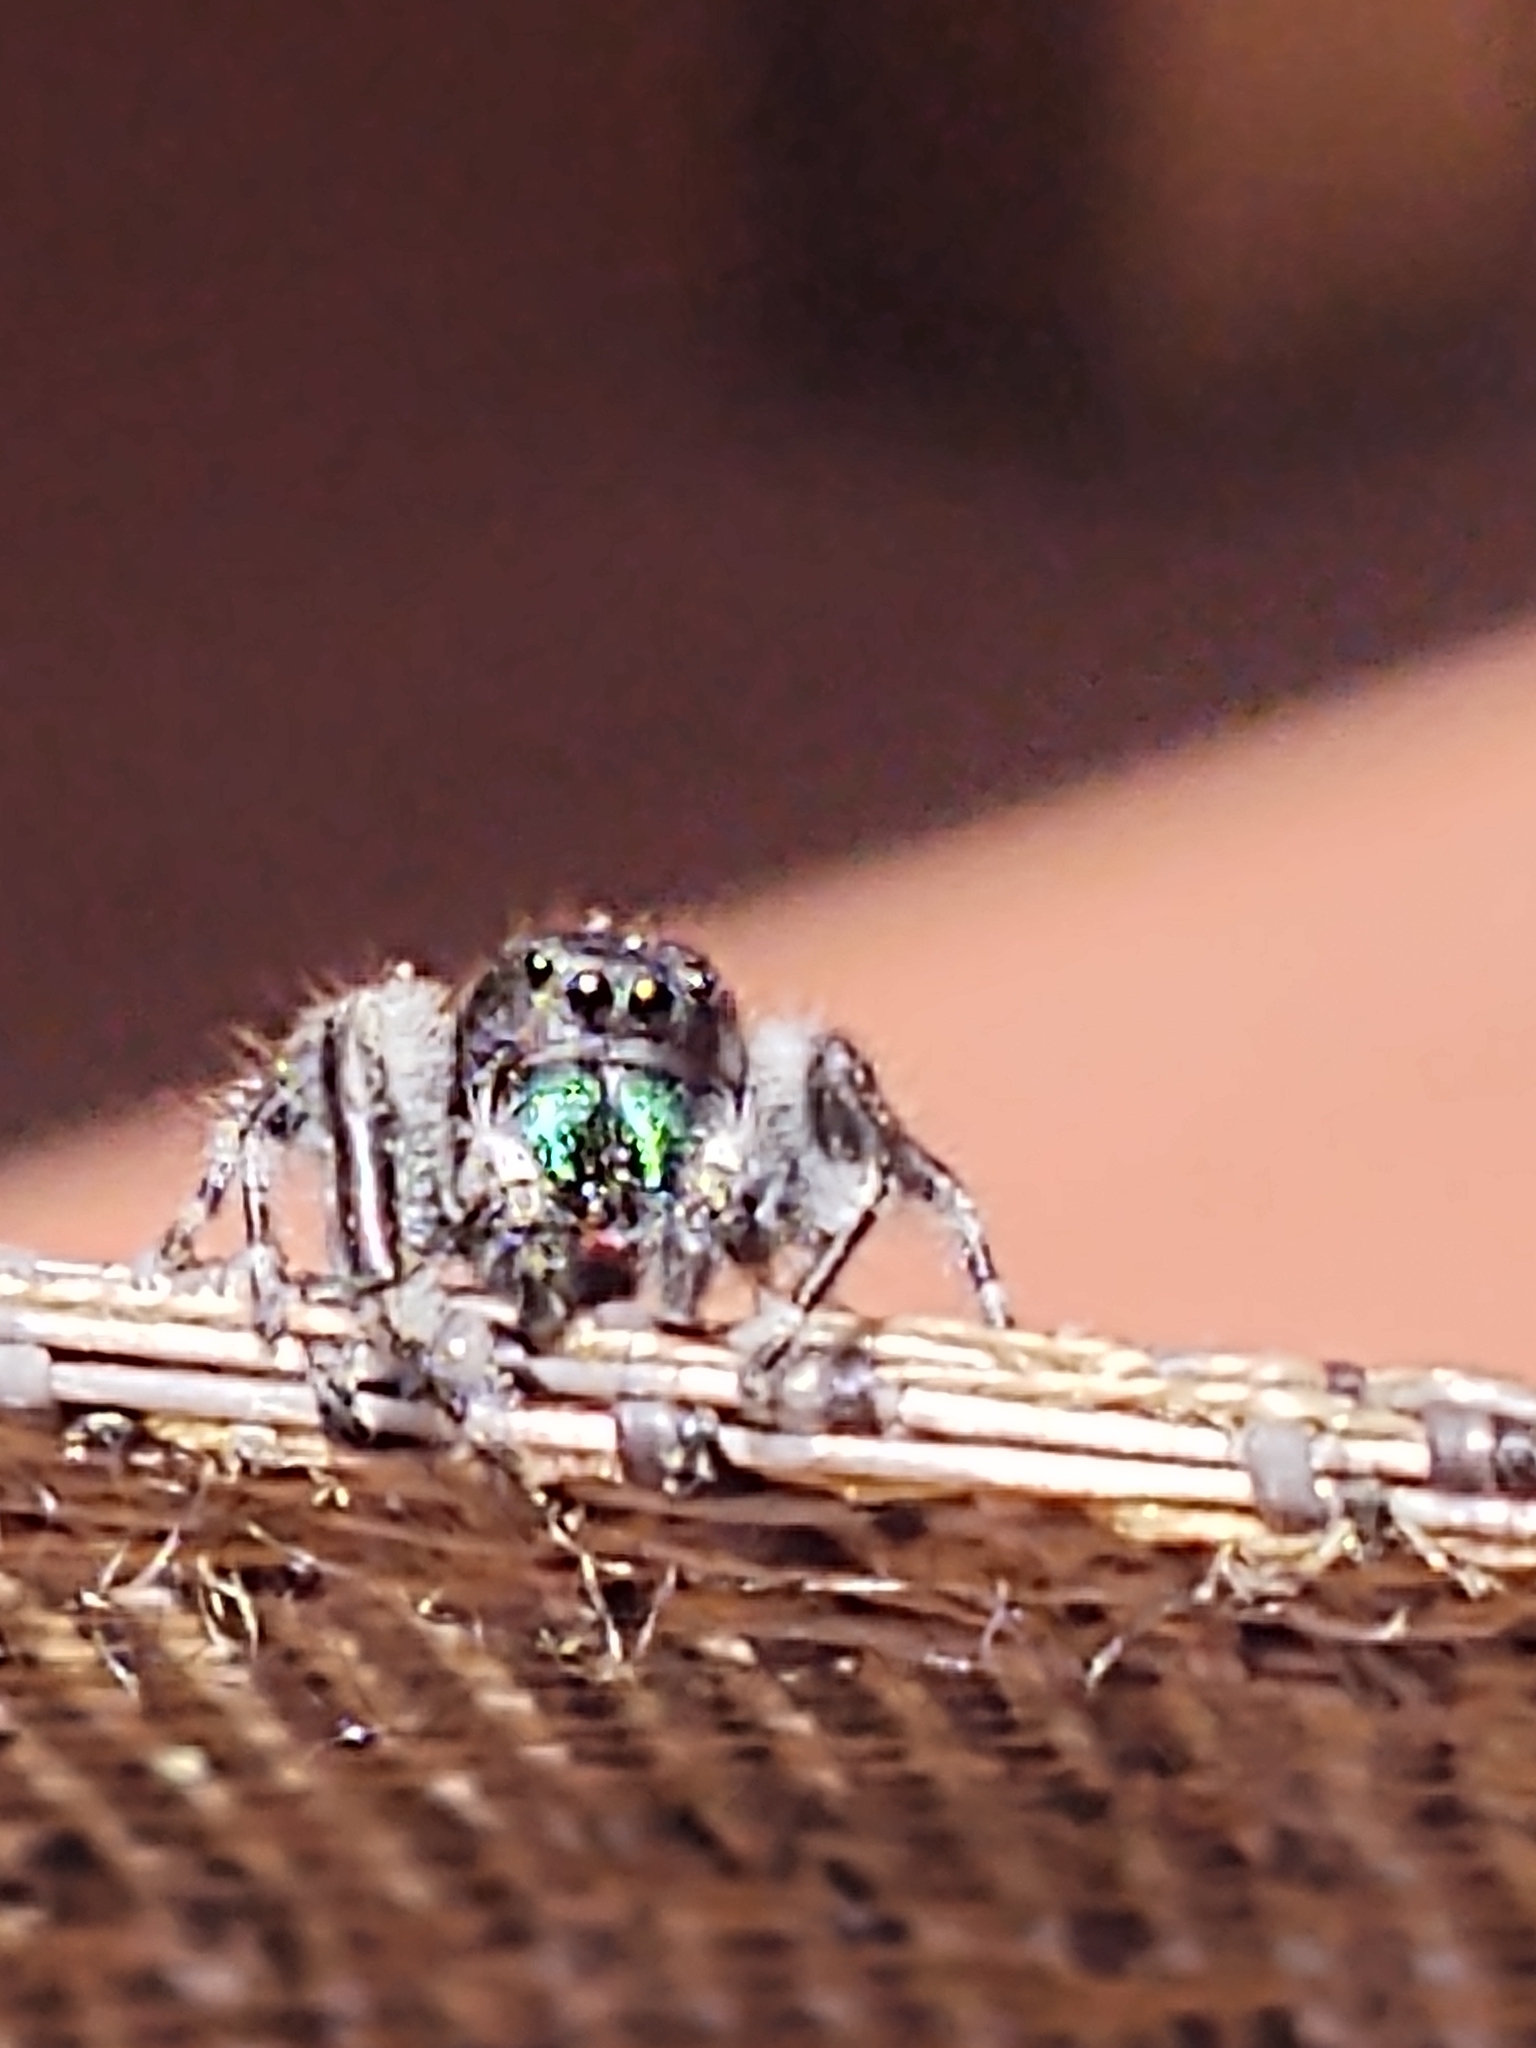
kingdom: Animalia
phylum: Arthropoda
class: Arachnida
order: Araneae
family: Salticidae
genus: Phidippus
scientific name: Phidippus audax
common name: Bold jumper
